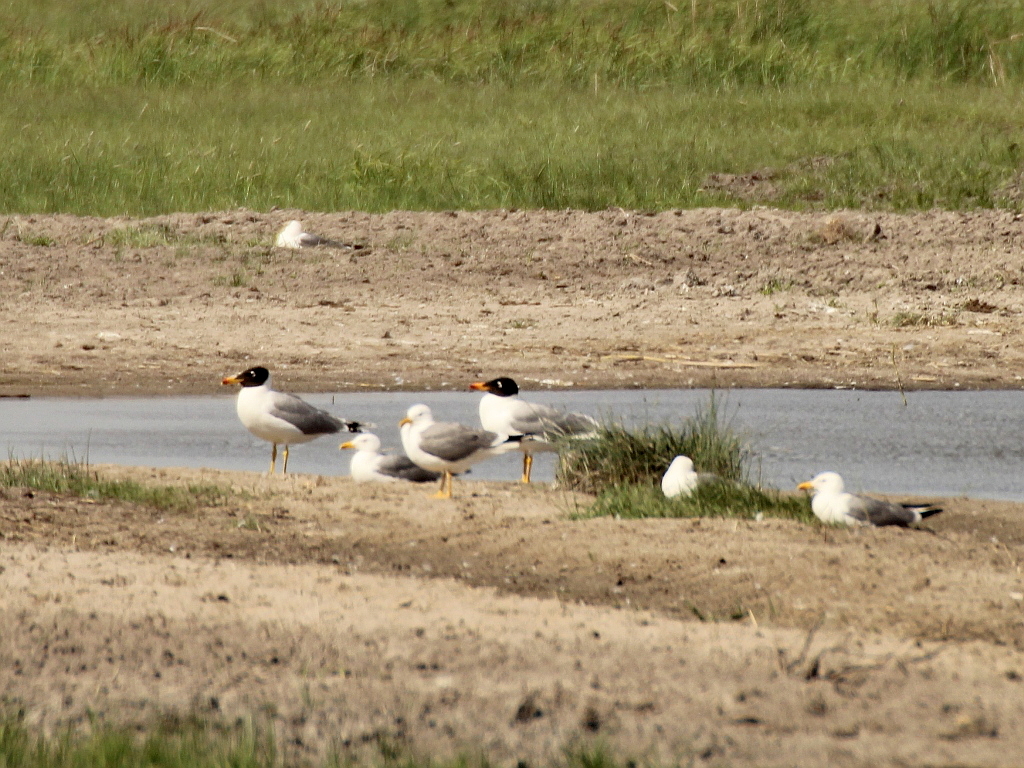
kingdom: Animalia
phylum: Chordata
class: Aves
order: Charadriiformes
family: Laridae
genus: Ichthyaetus
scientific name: Ichthyaetus ichthyaetus
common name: Pallas's gull
